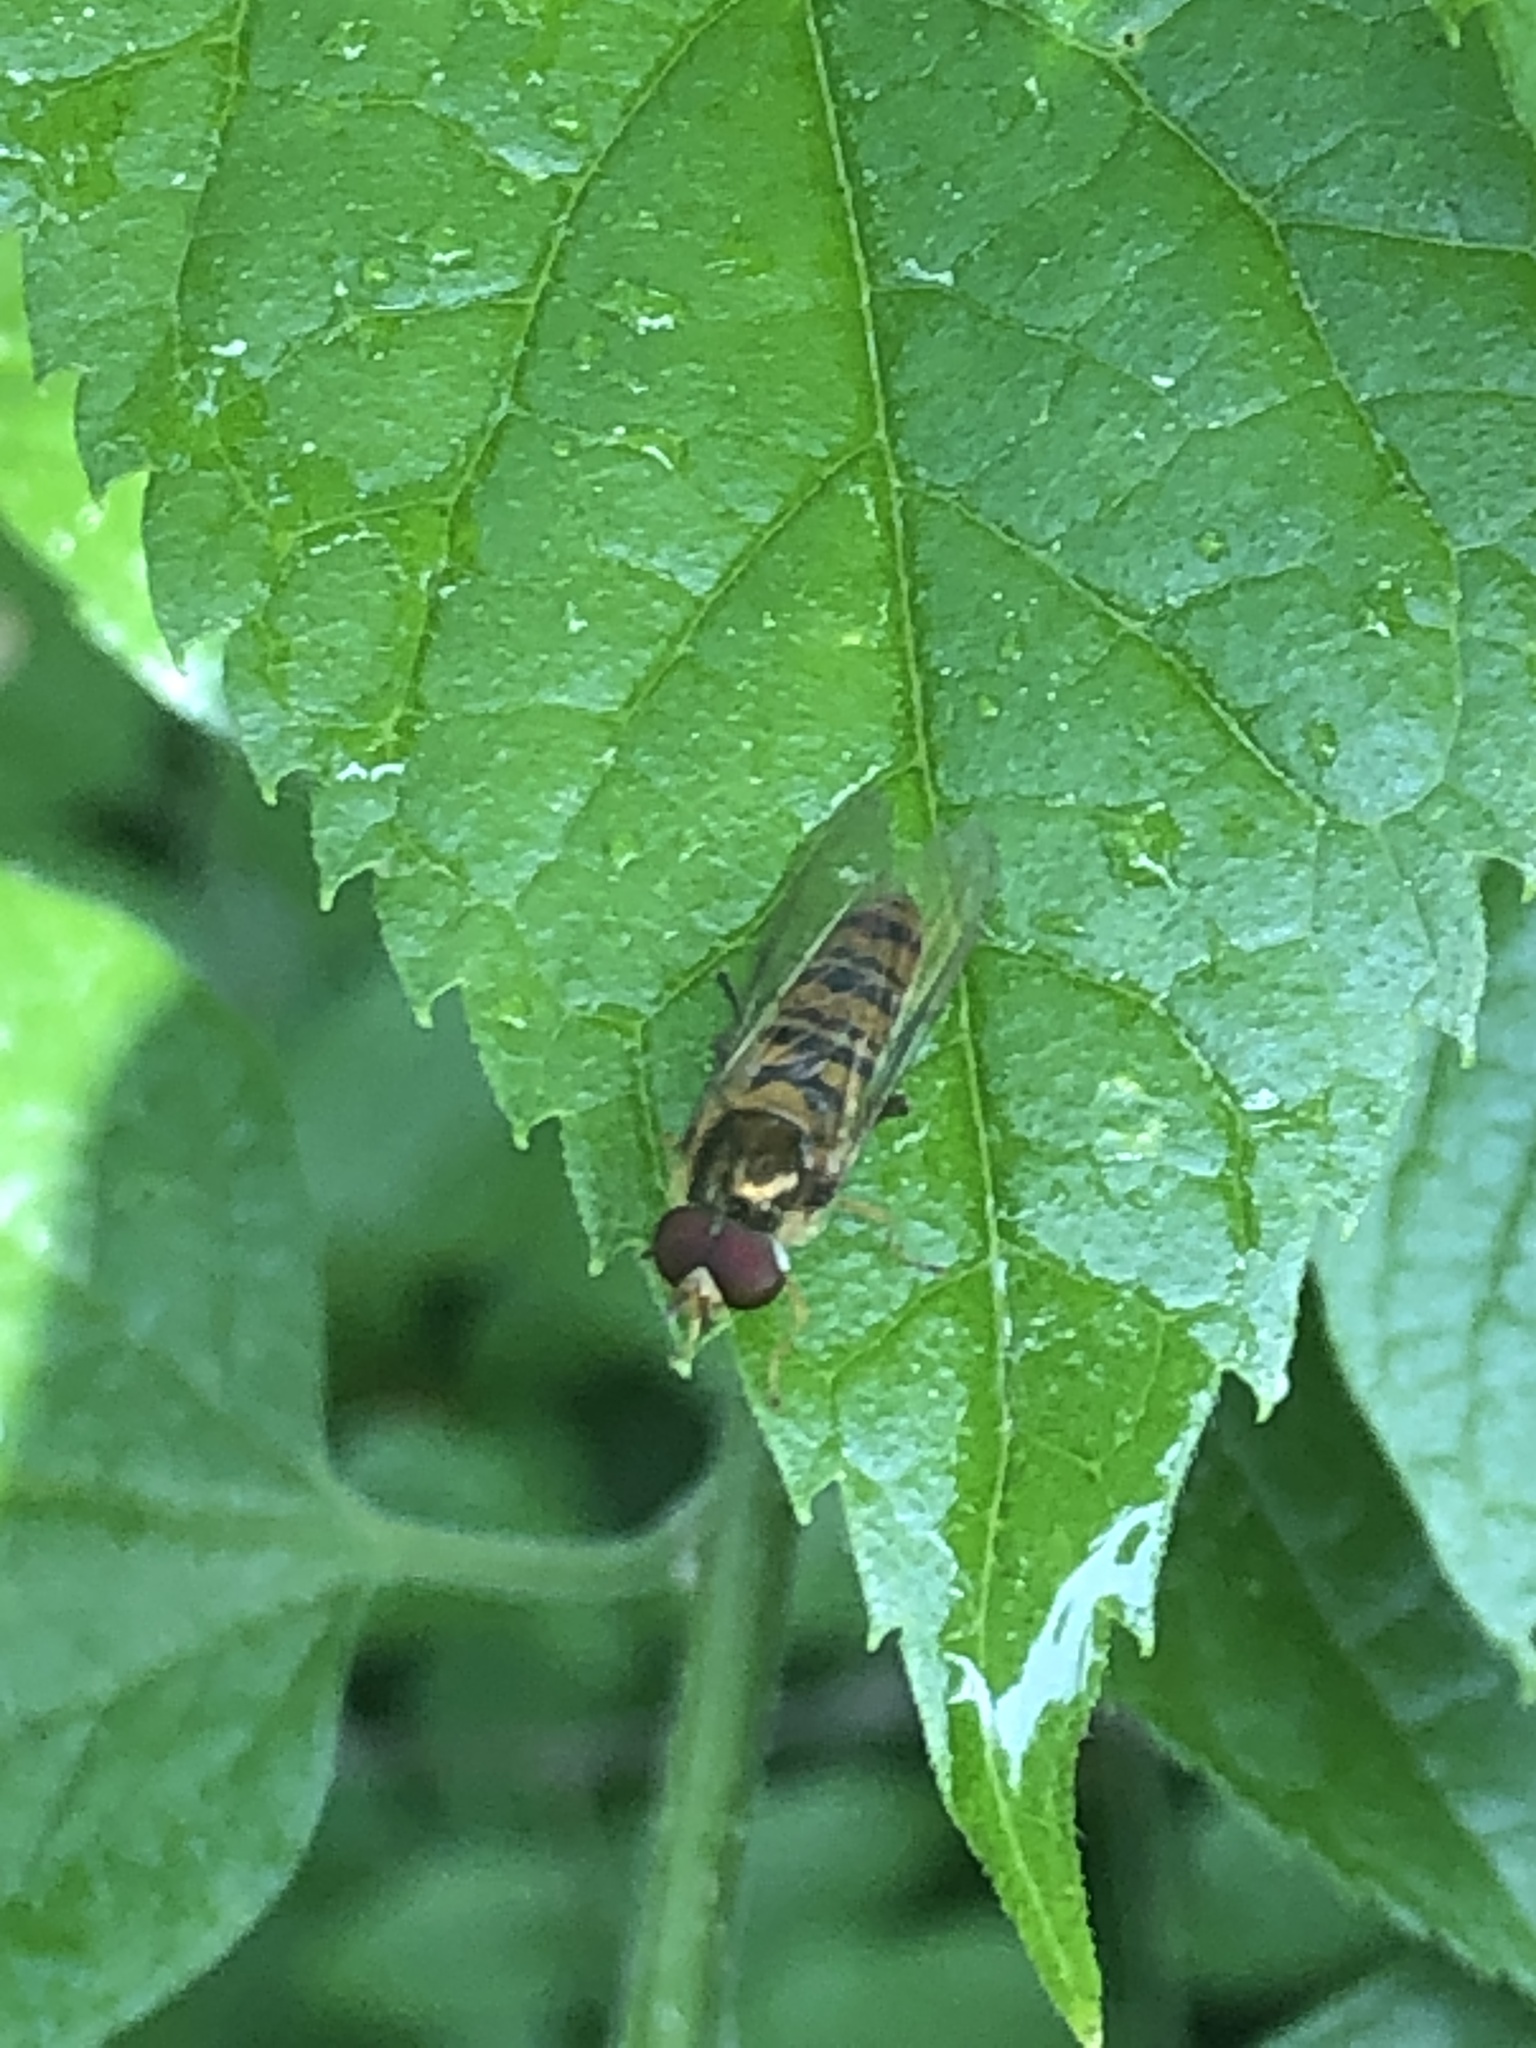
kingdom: Animalia
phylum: Arthropoda
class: Insecta
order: Diptera
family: Syrphidae
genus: Episyrphus
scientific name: Episyrphus balteatus
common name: Marmalade hoverfly
